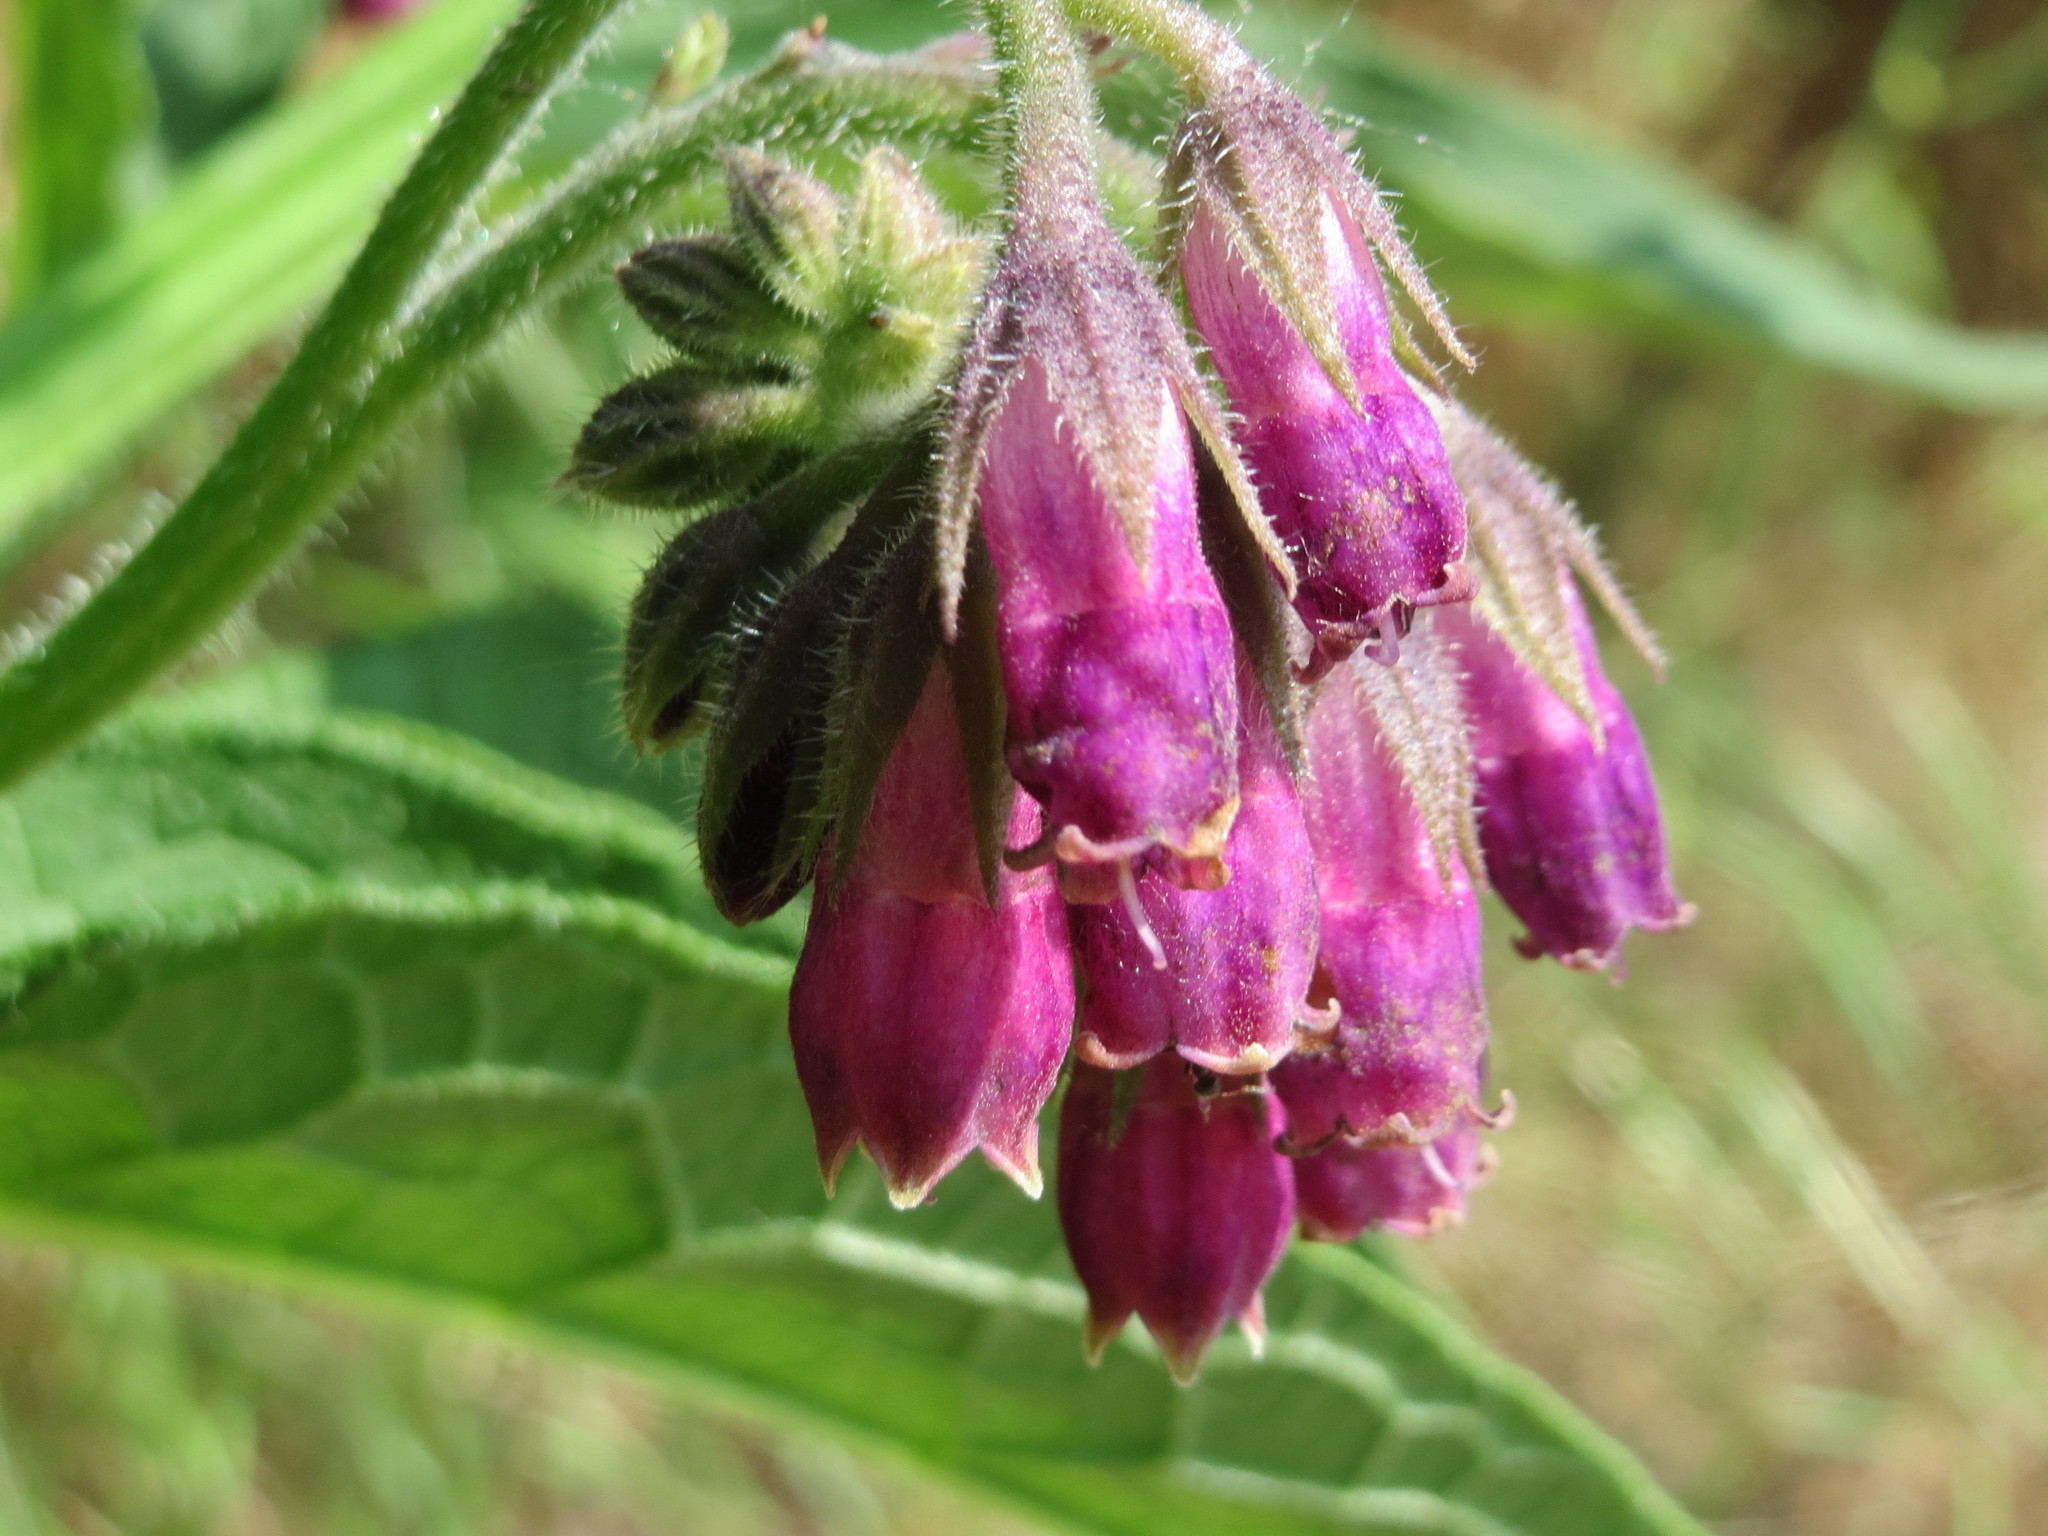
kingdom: Plantae
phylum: Tracheophyta
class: Magnoliopsida
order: Boraginales
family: Boraginaceae
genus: Symphytum
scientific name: Symphytum officinale
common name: Common comfrey
